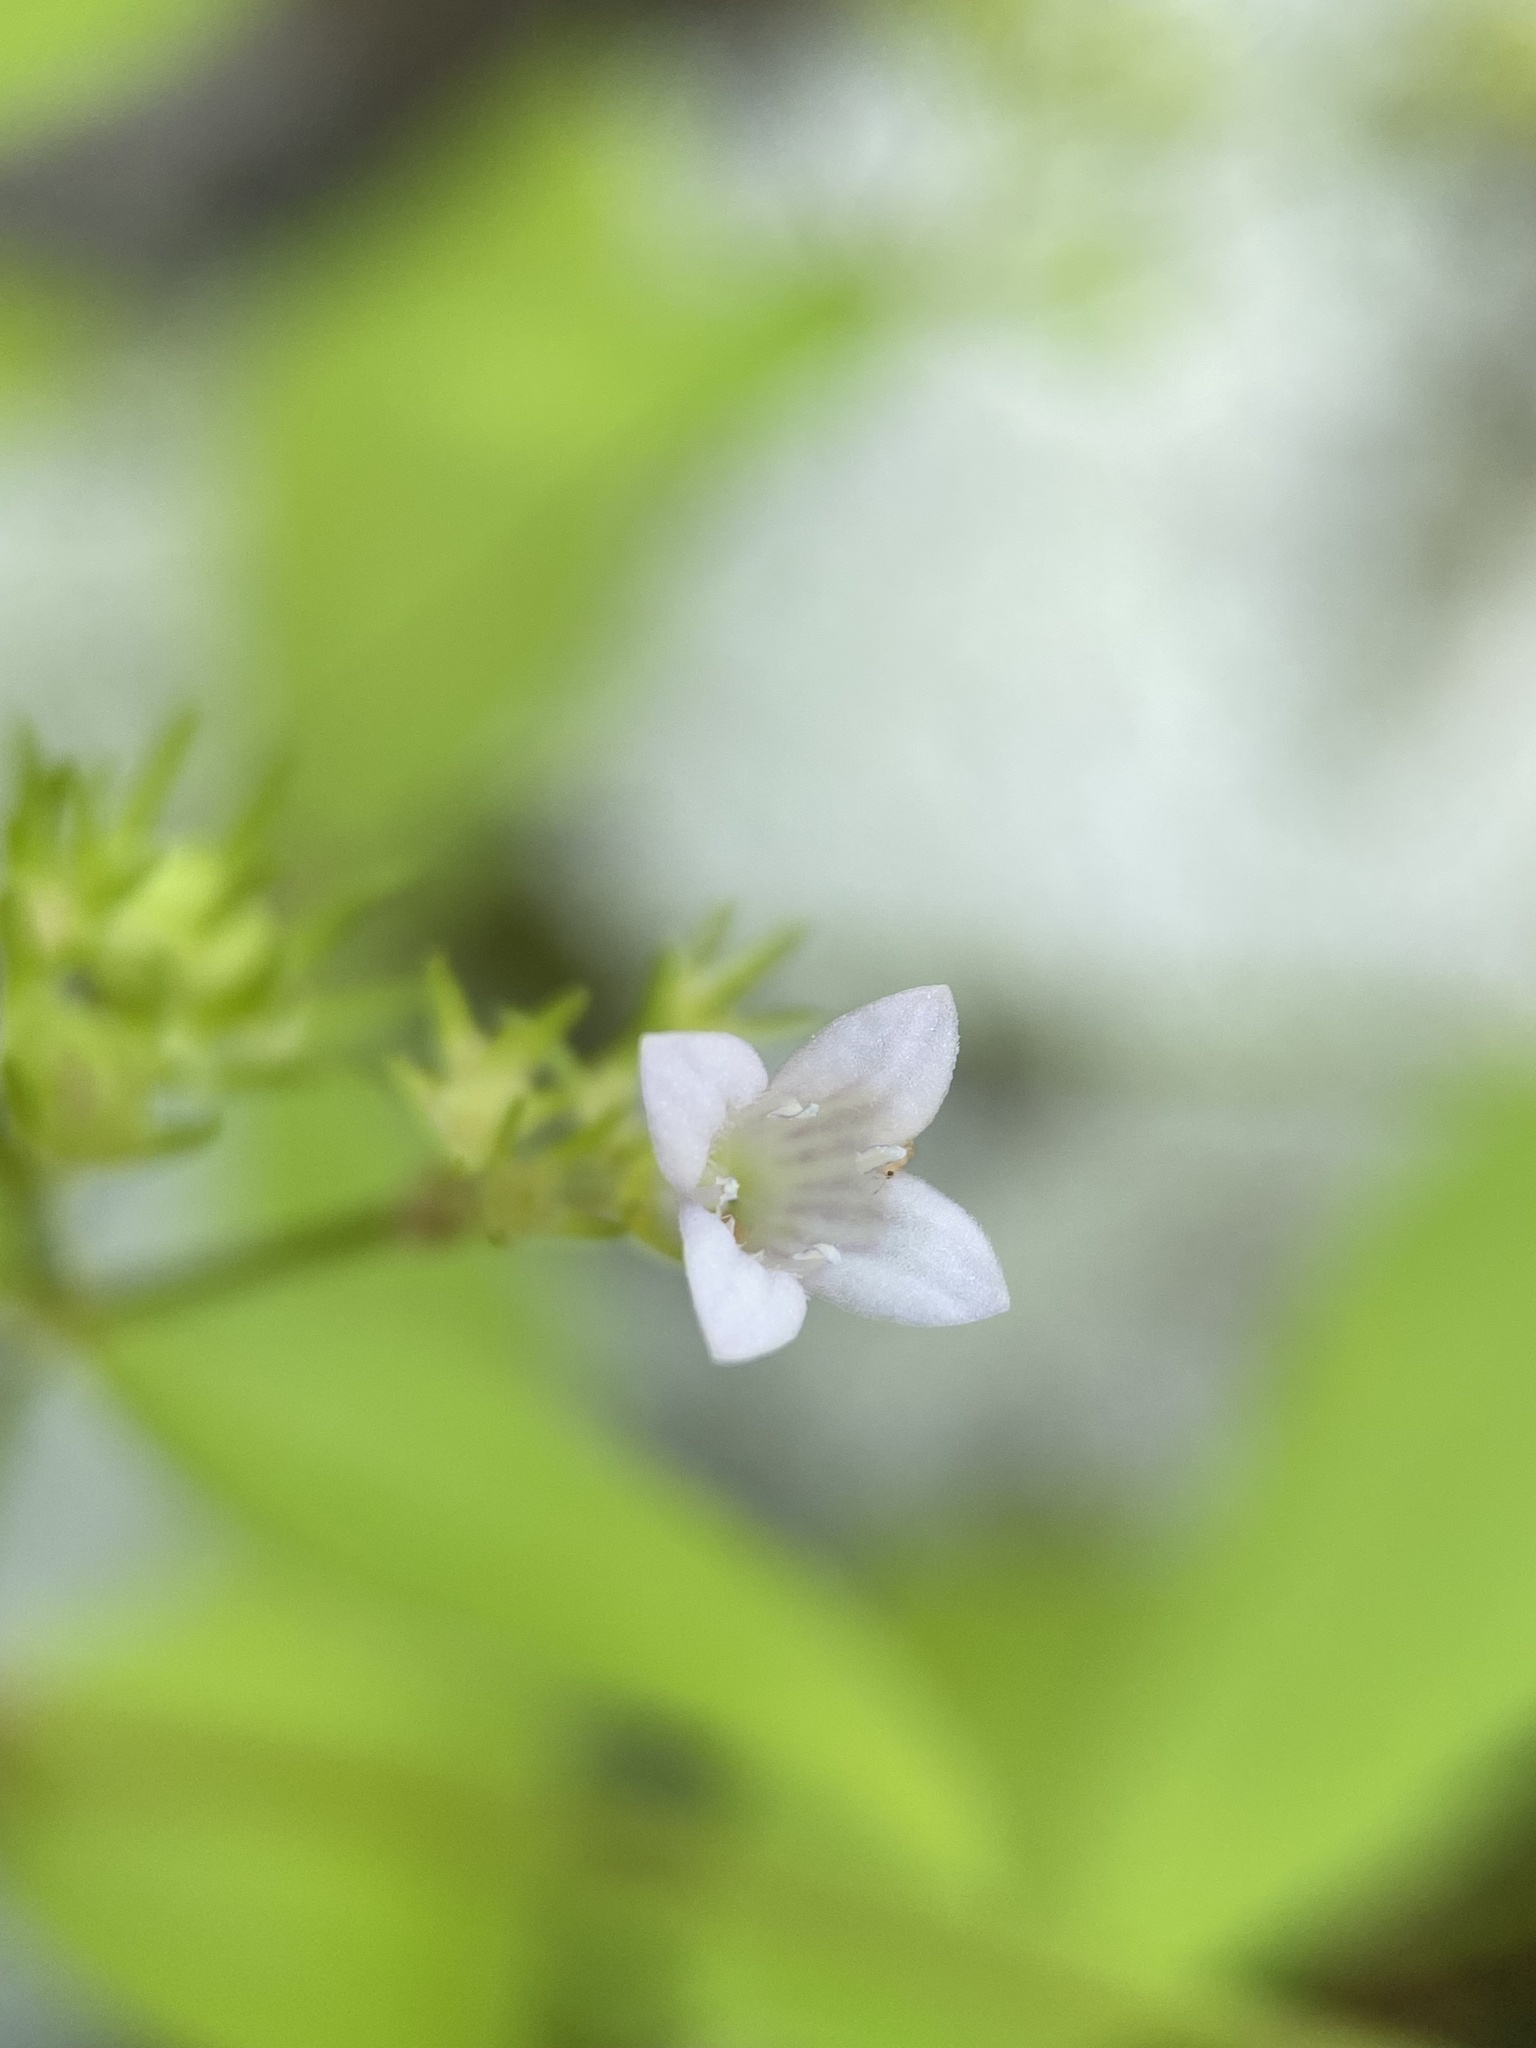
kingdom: Plantae
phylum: Tracheophyta
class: Magnoliopsida
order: Gentianales
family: Rubiaceae
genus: Houstonia
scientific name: Houstonia purpurea
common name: Summer bluet
